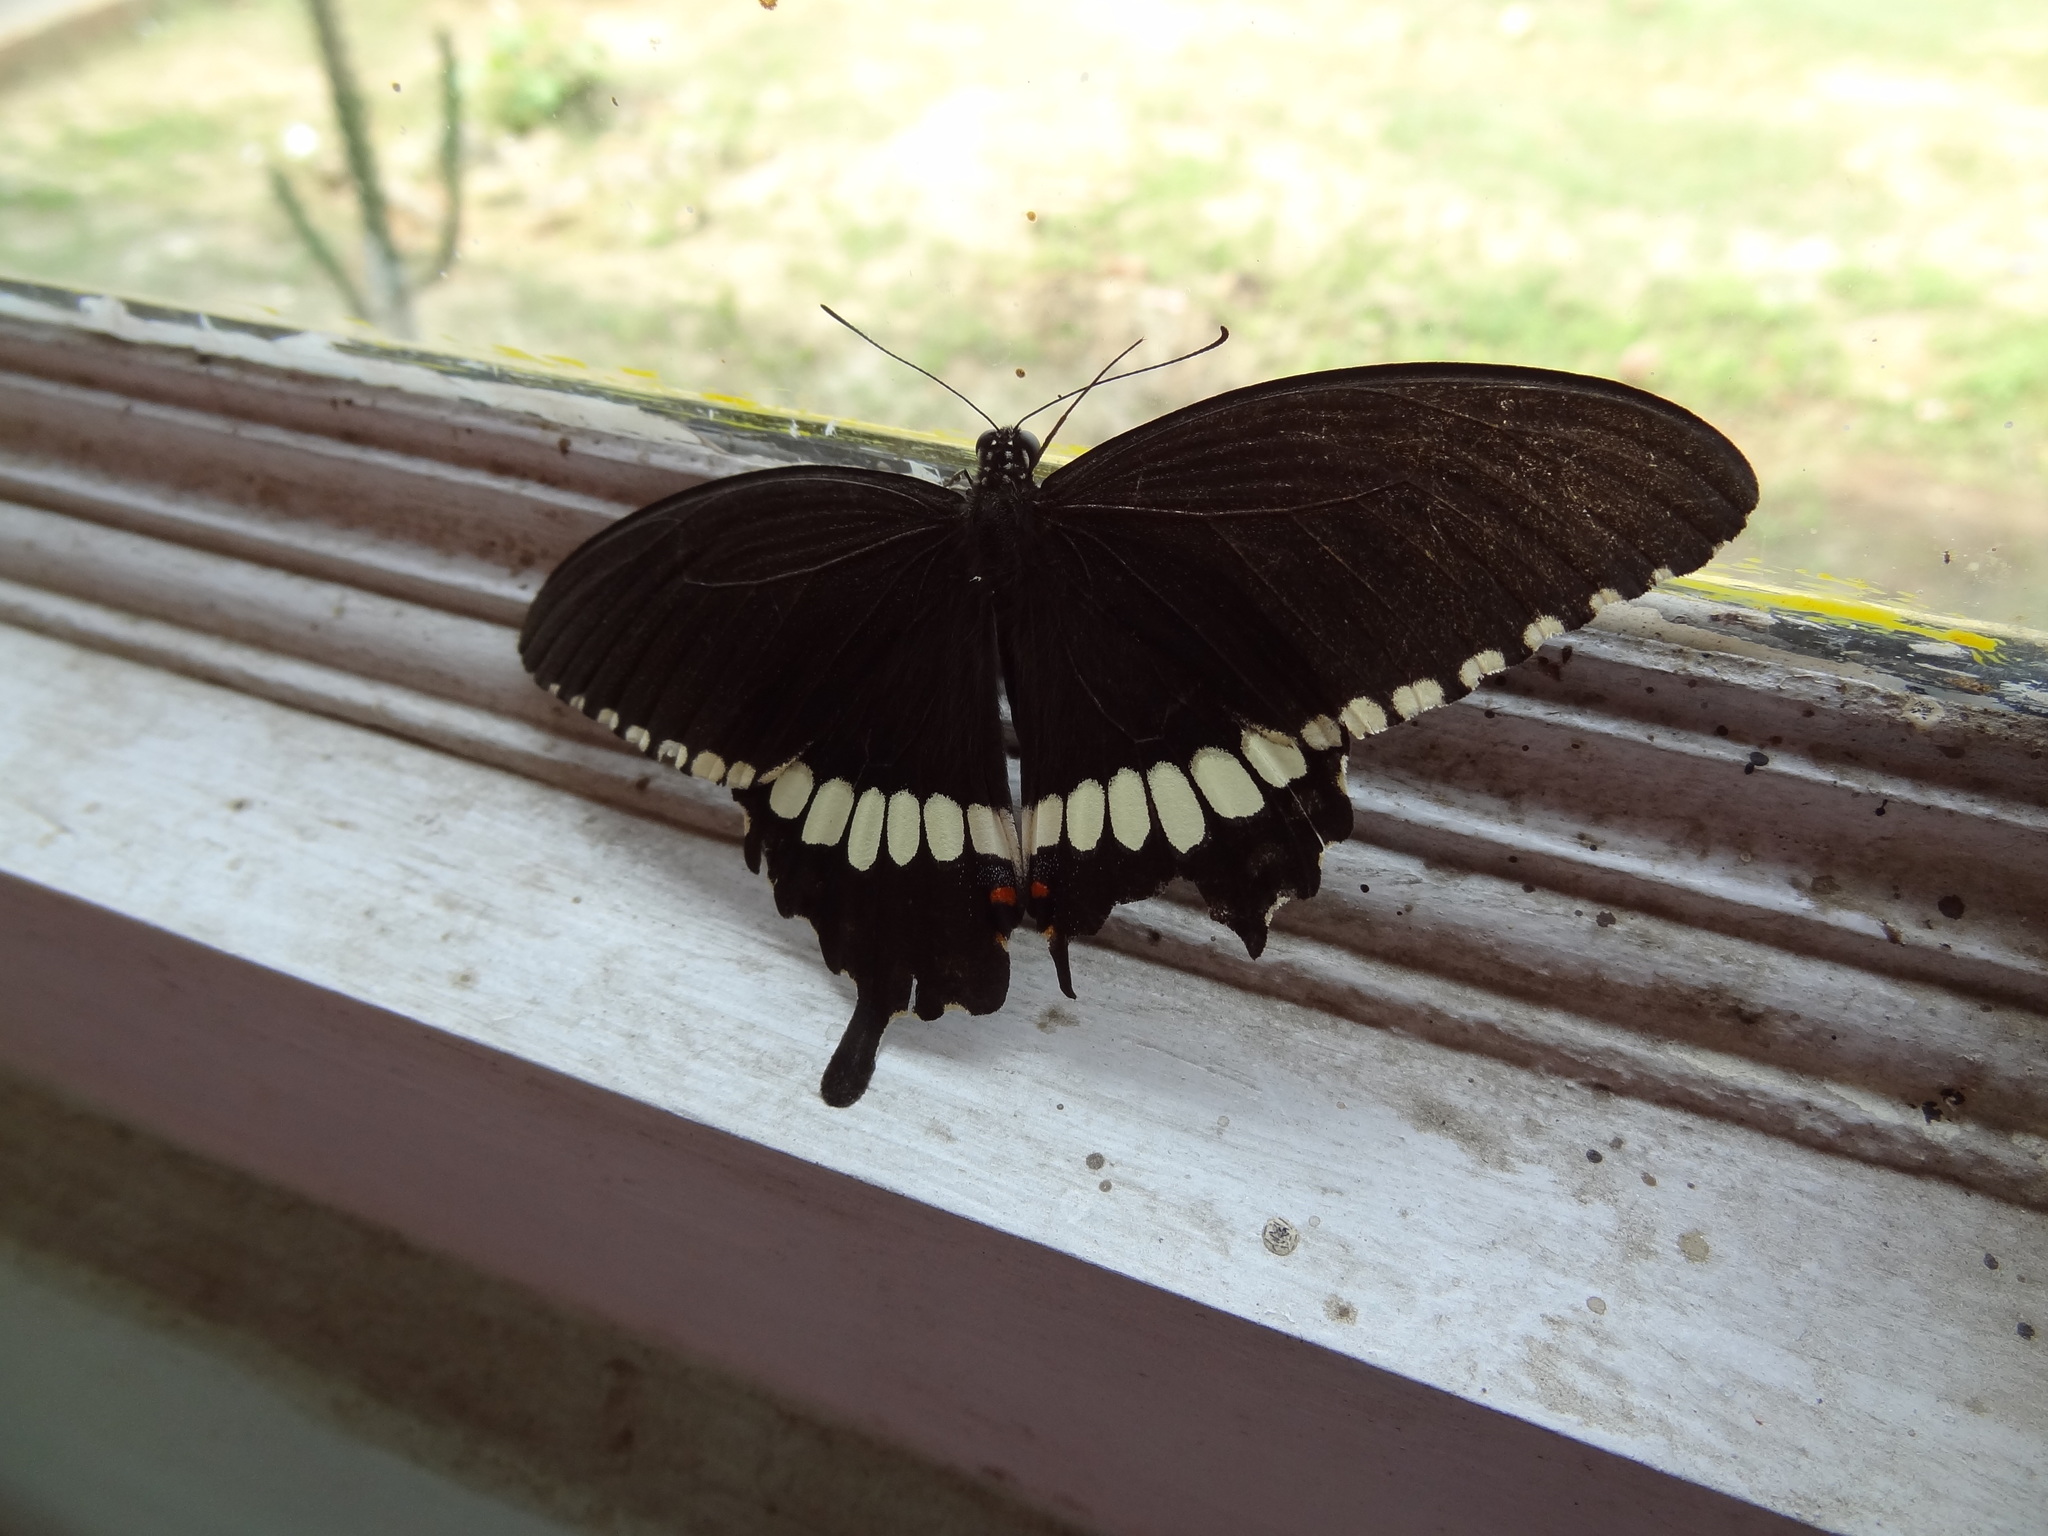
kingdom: Animalia
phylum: Arthropoda
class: Insecta
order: Lepidoptera
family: Papilionidae
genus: Papilio
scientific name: Papilio polytes
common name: Common mormon
